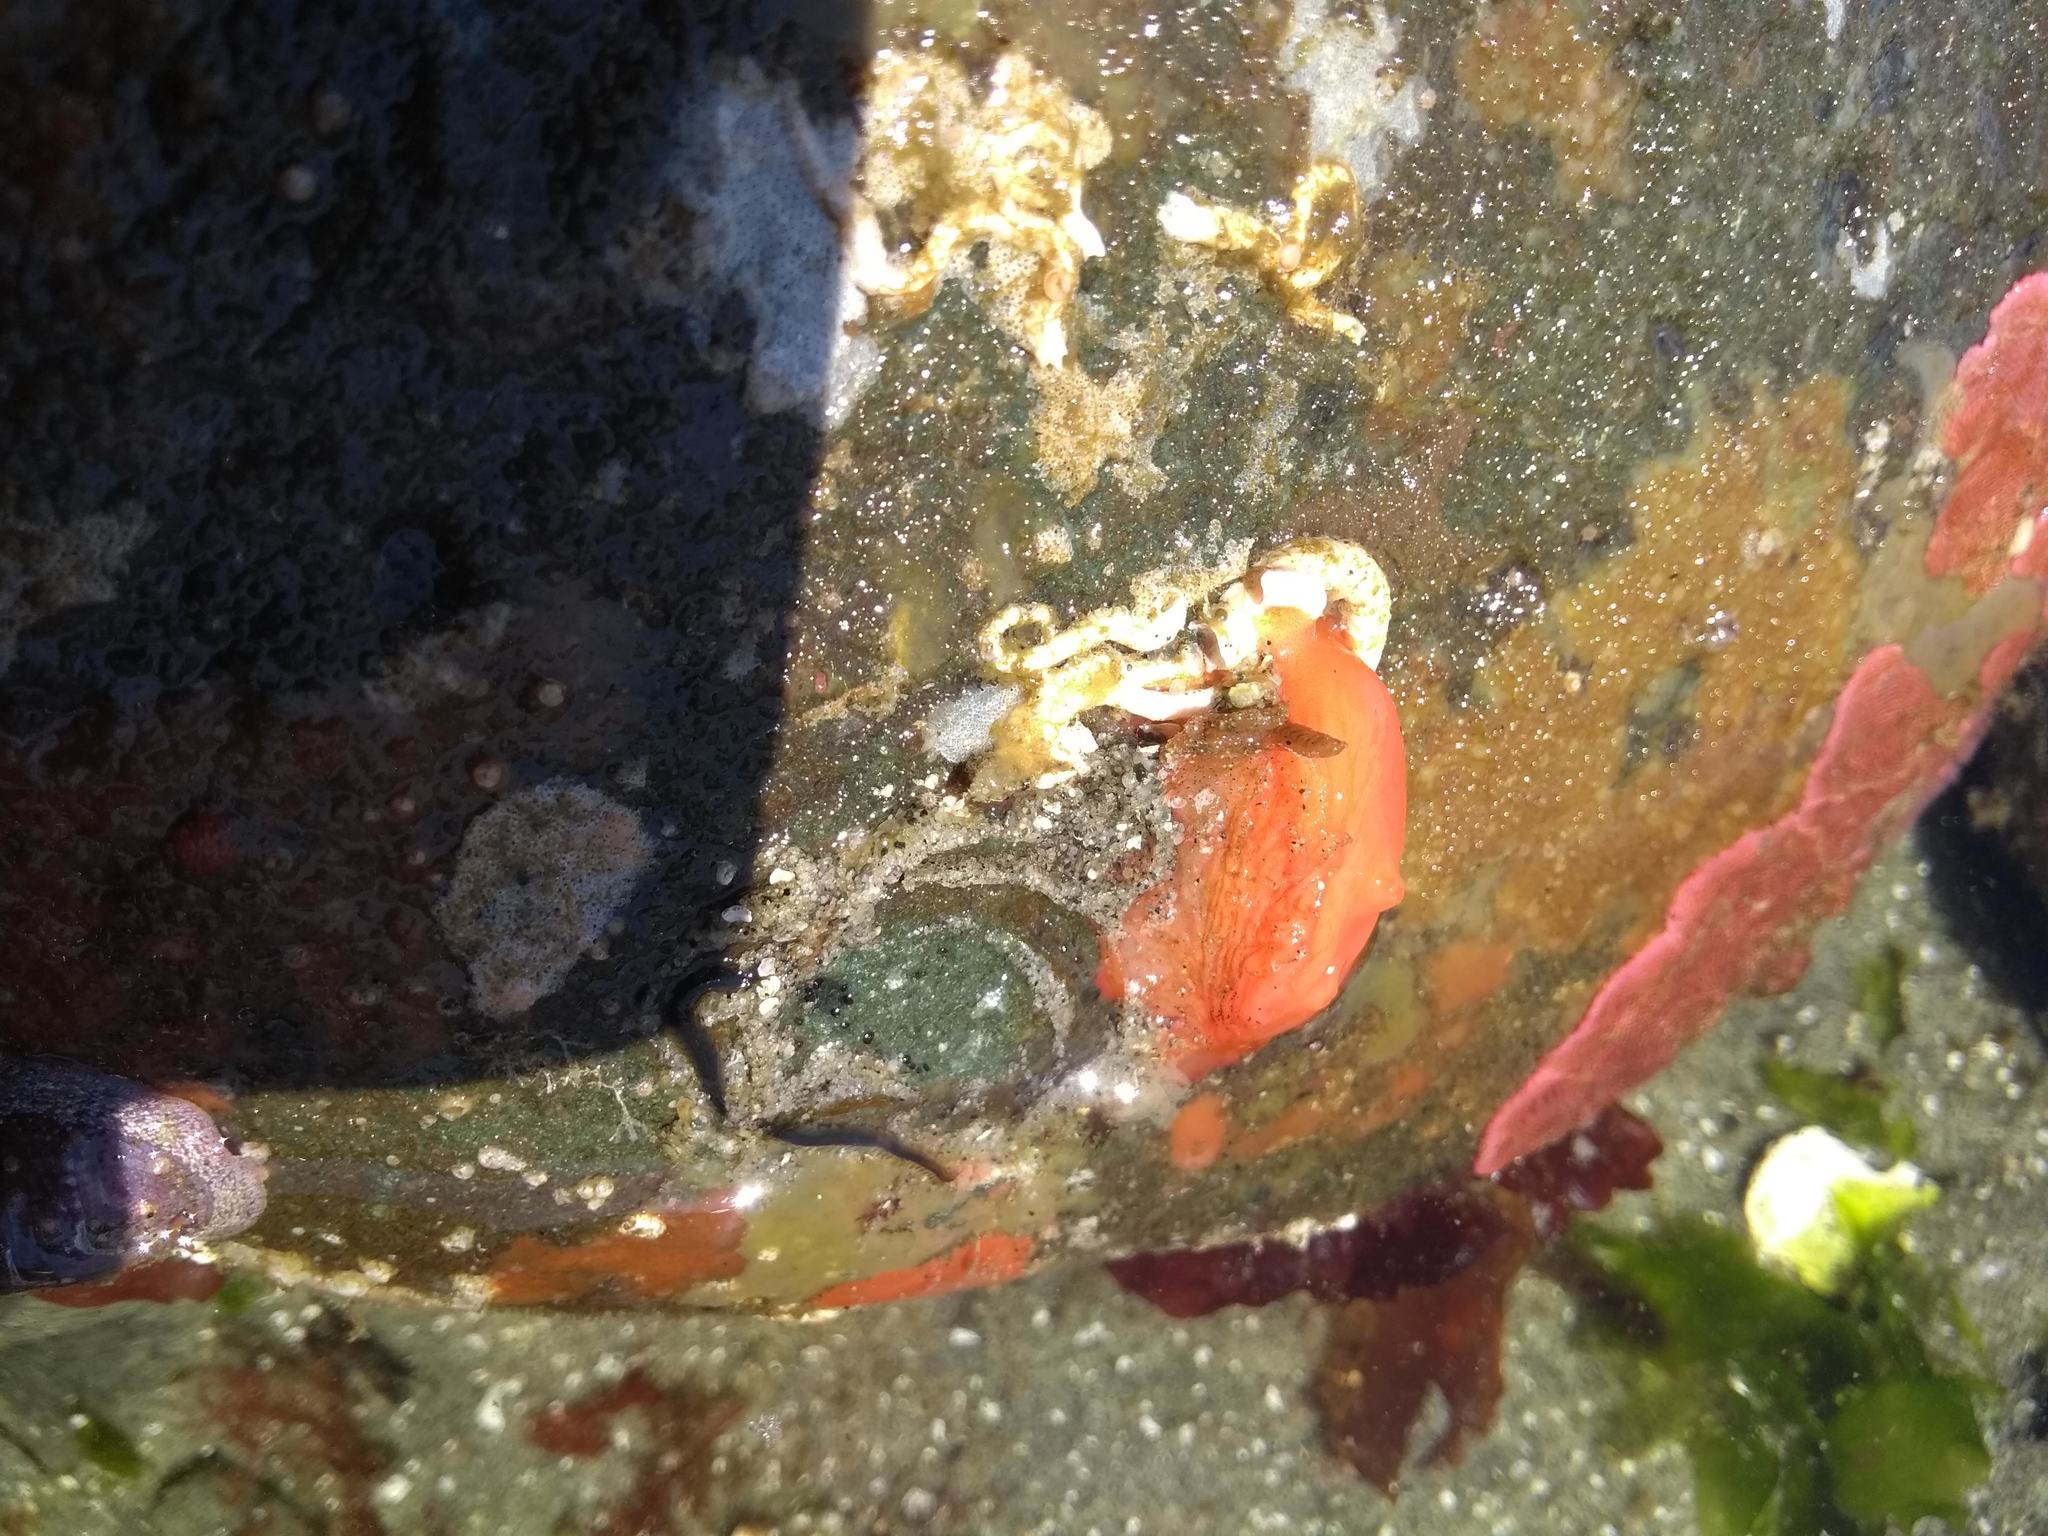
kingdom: Animalia
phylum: Chordata
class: Ascidiacea
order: Stolidobranchia
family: Styelidae
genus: Cnemidocarpa
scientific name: Cnemidocarpa finmarkiensis
